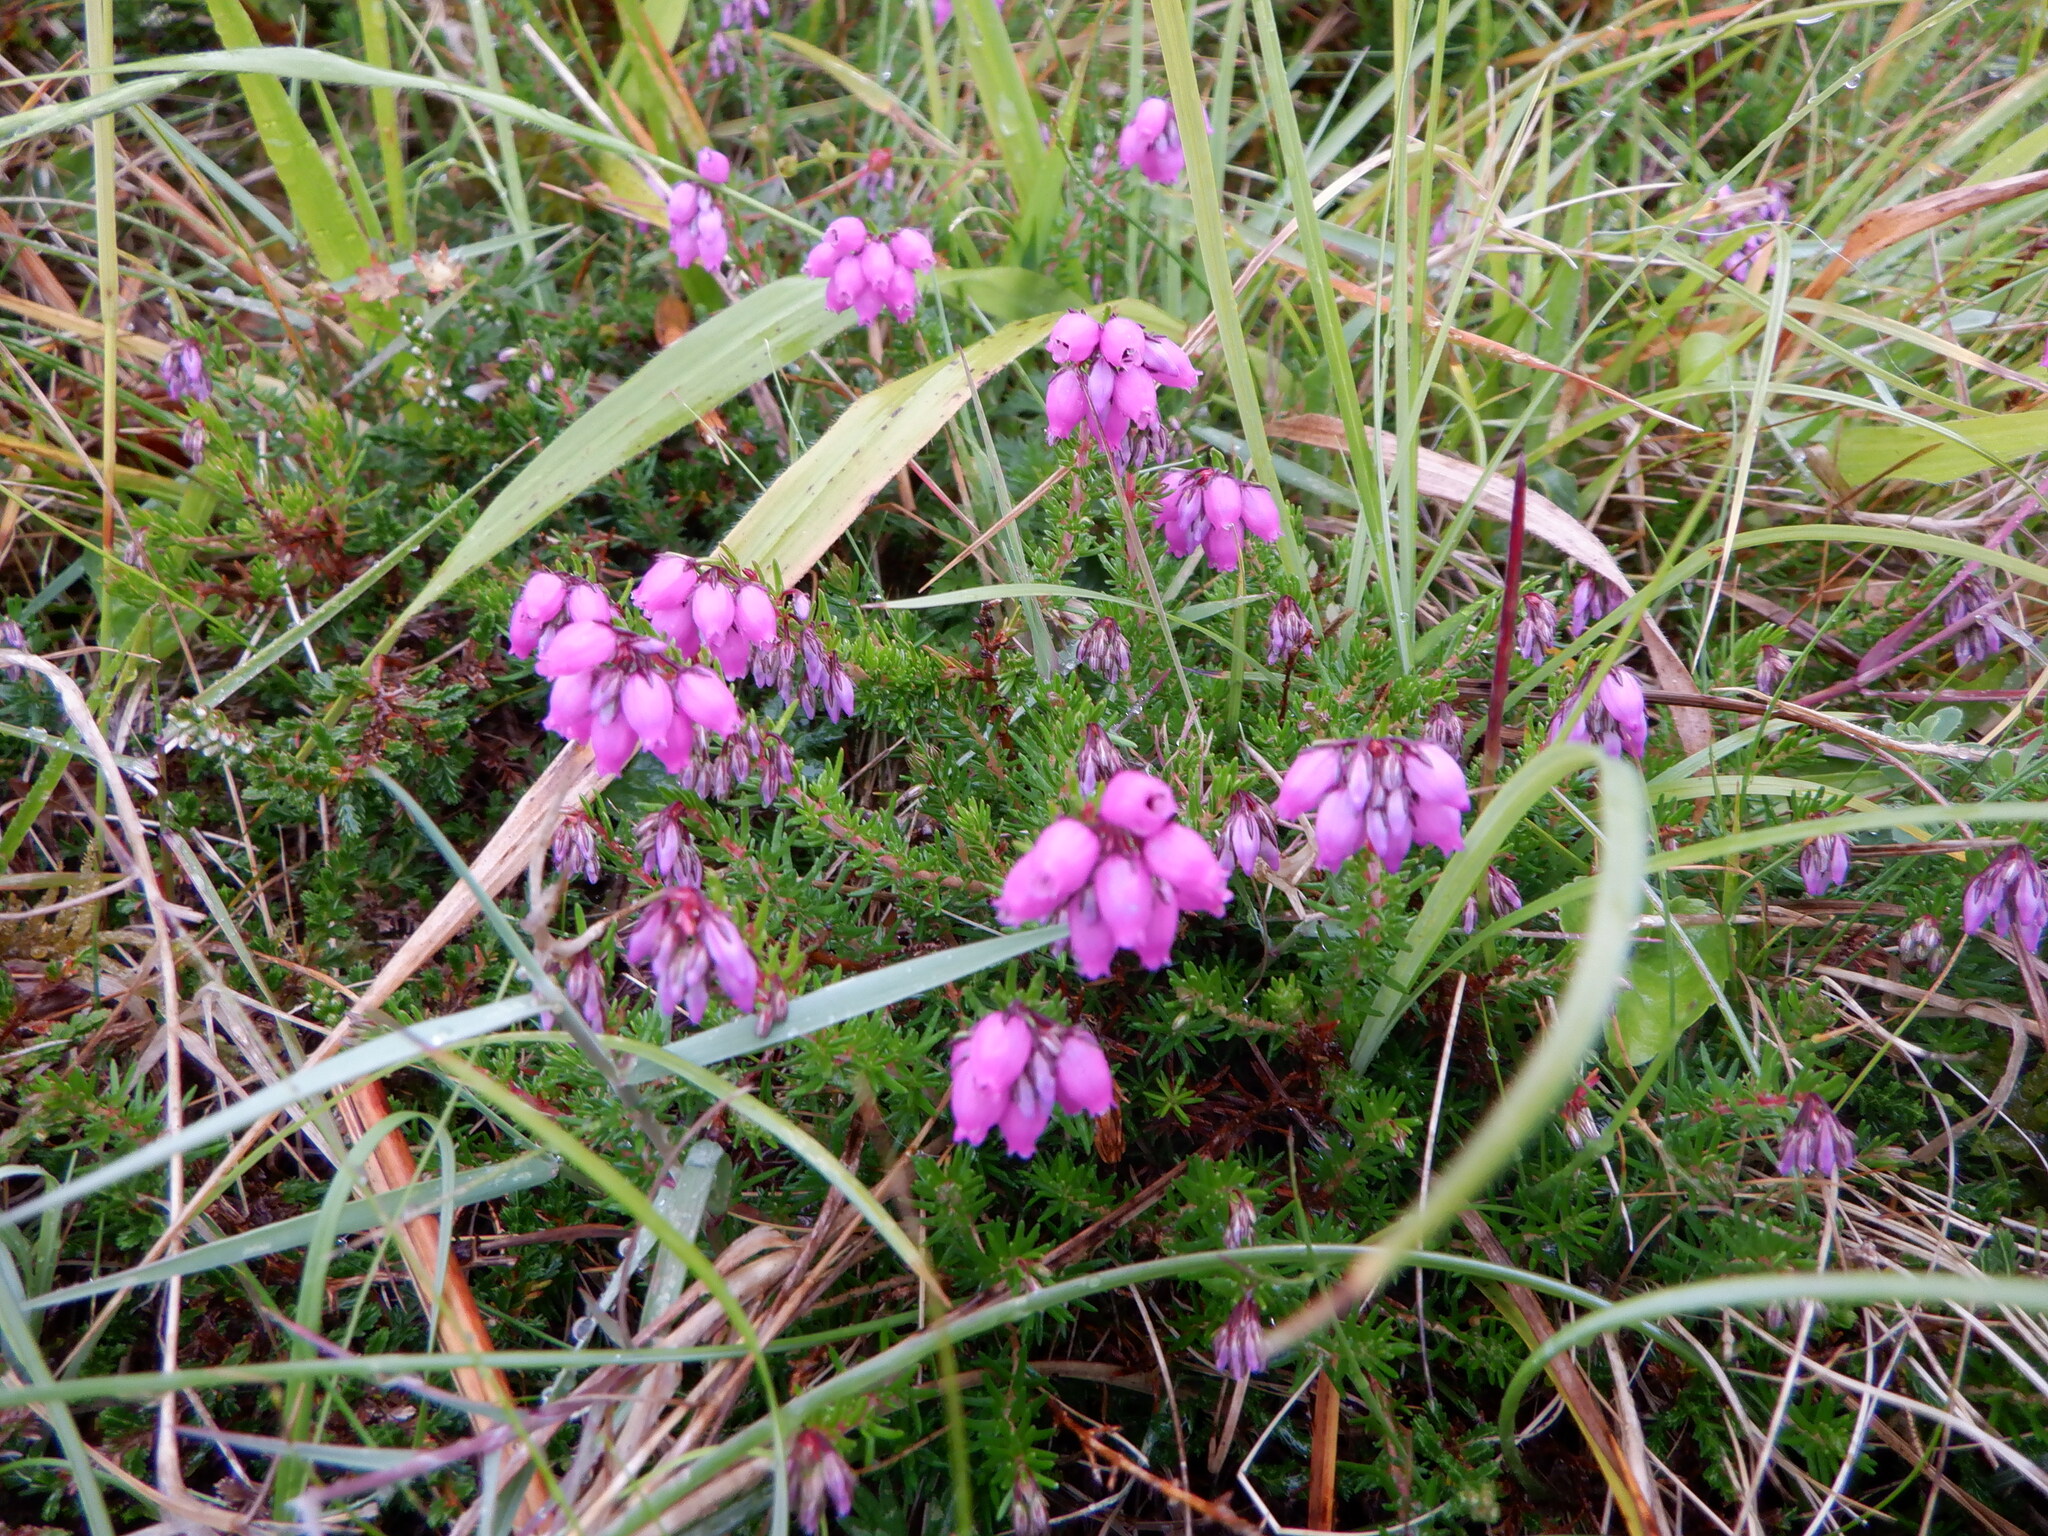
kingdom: Plantae
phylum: Tracheophyta
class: Magnoliopsida
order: Ericales
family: Ericaceae
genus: Erica
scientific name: Erica cinerea
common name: Bell heather
